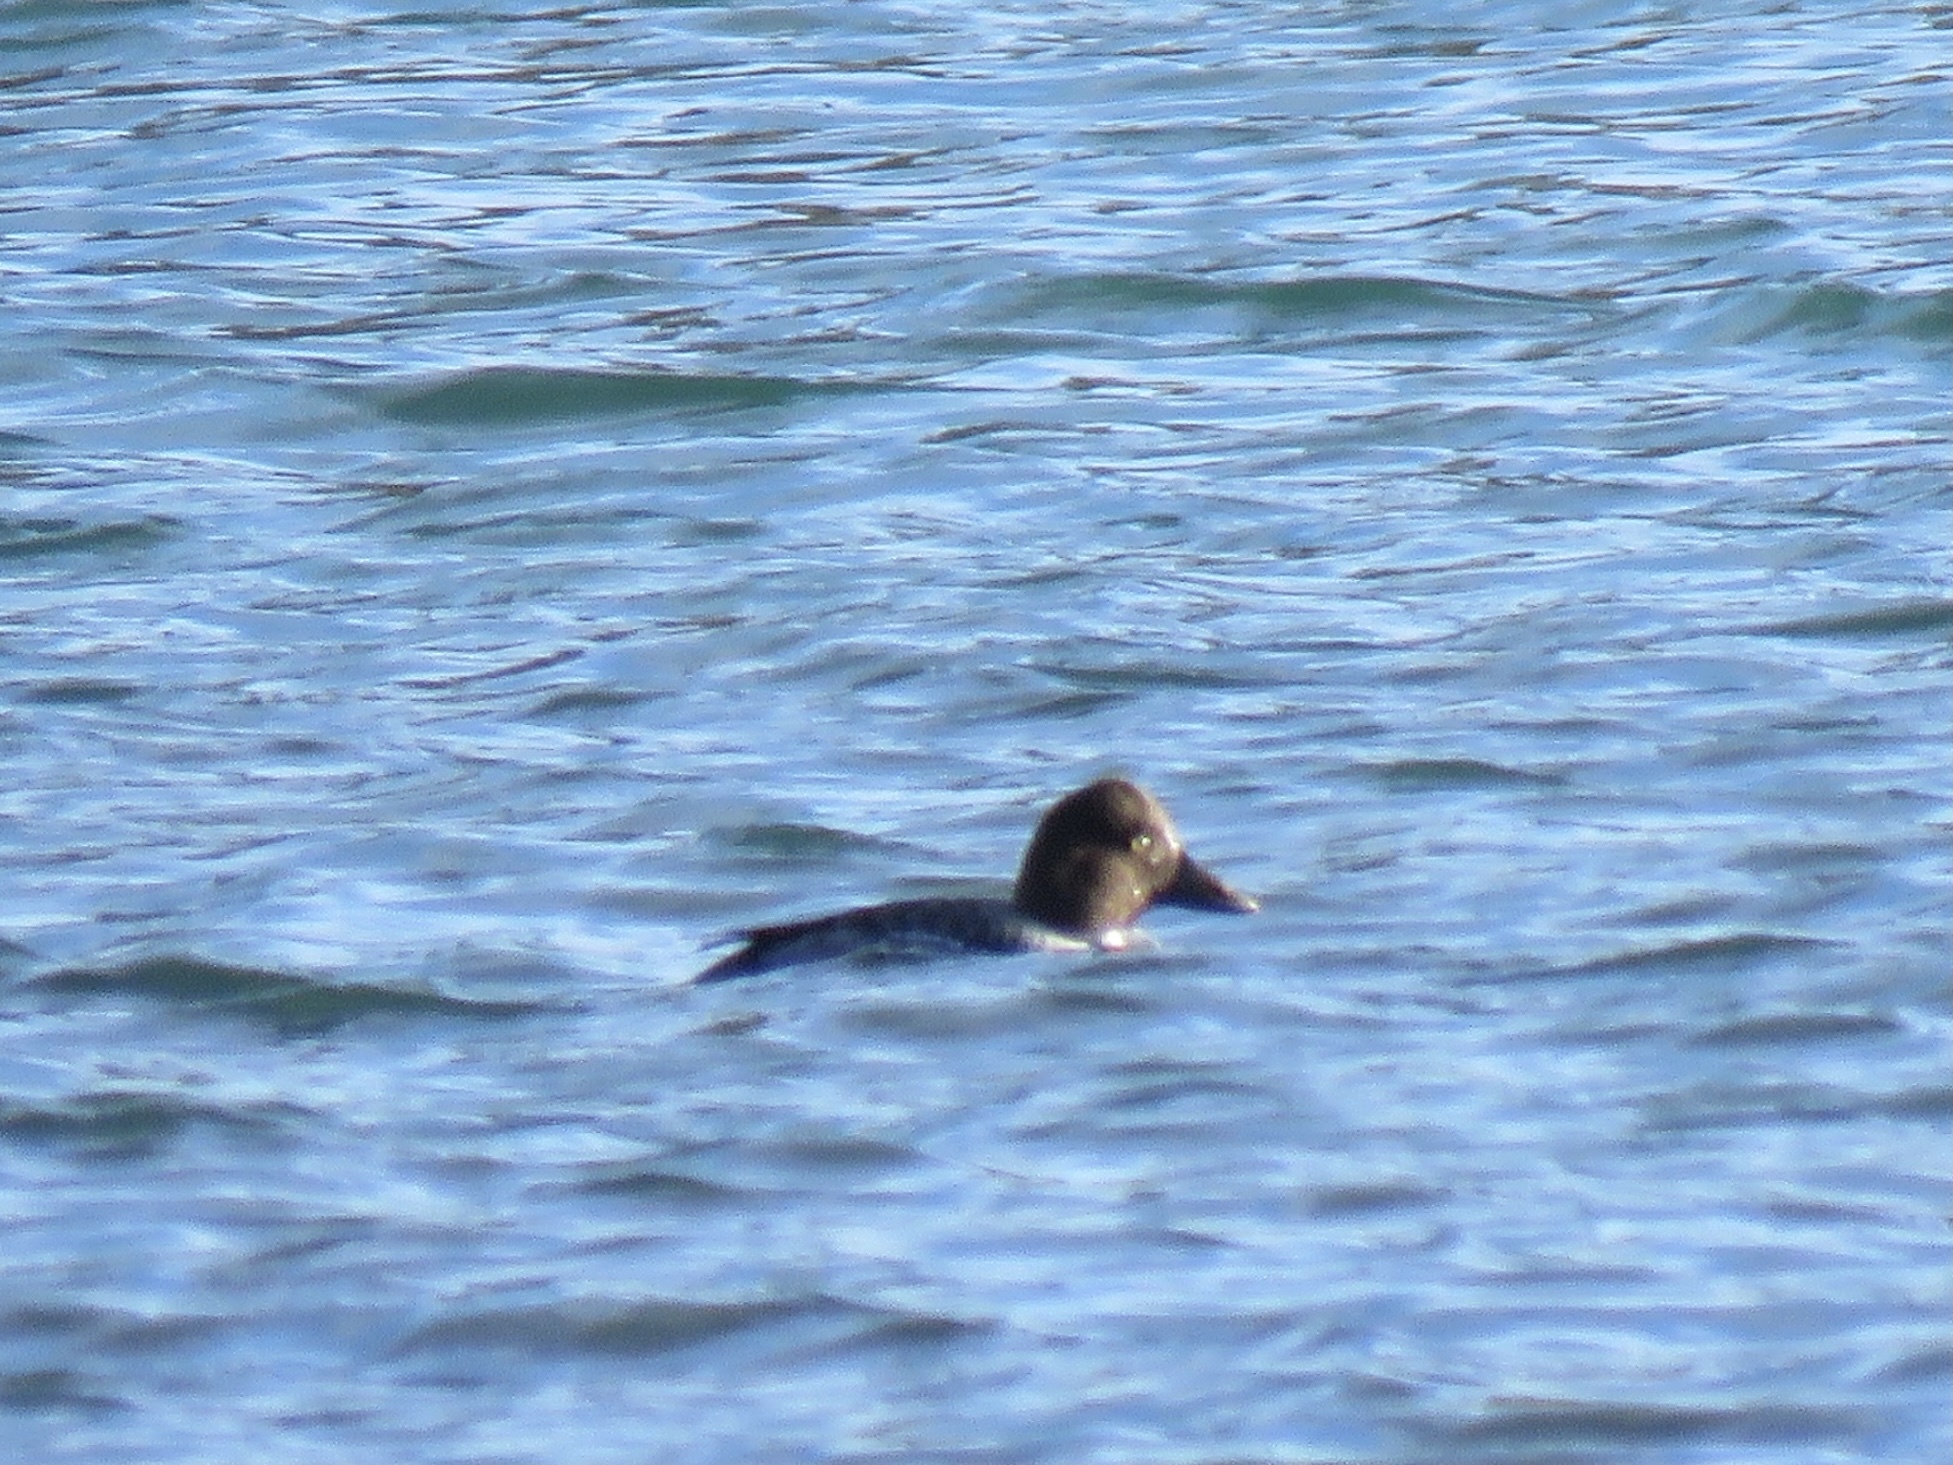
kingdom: Animalia
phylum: Chordata
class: Aves
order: Anseriformes
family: Anatidae
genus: Bucephala
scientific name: Bucephala clangula
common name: Common goldeneye
